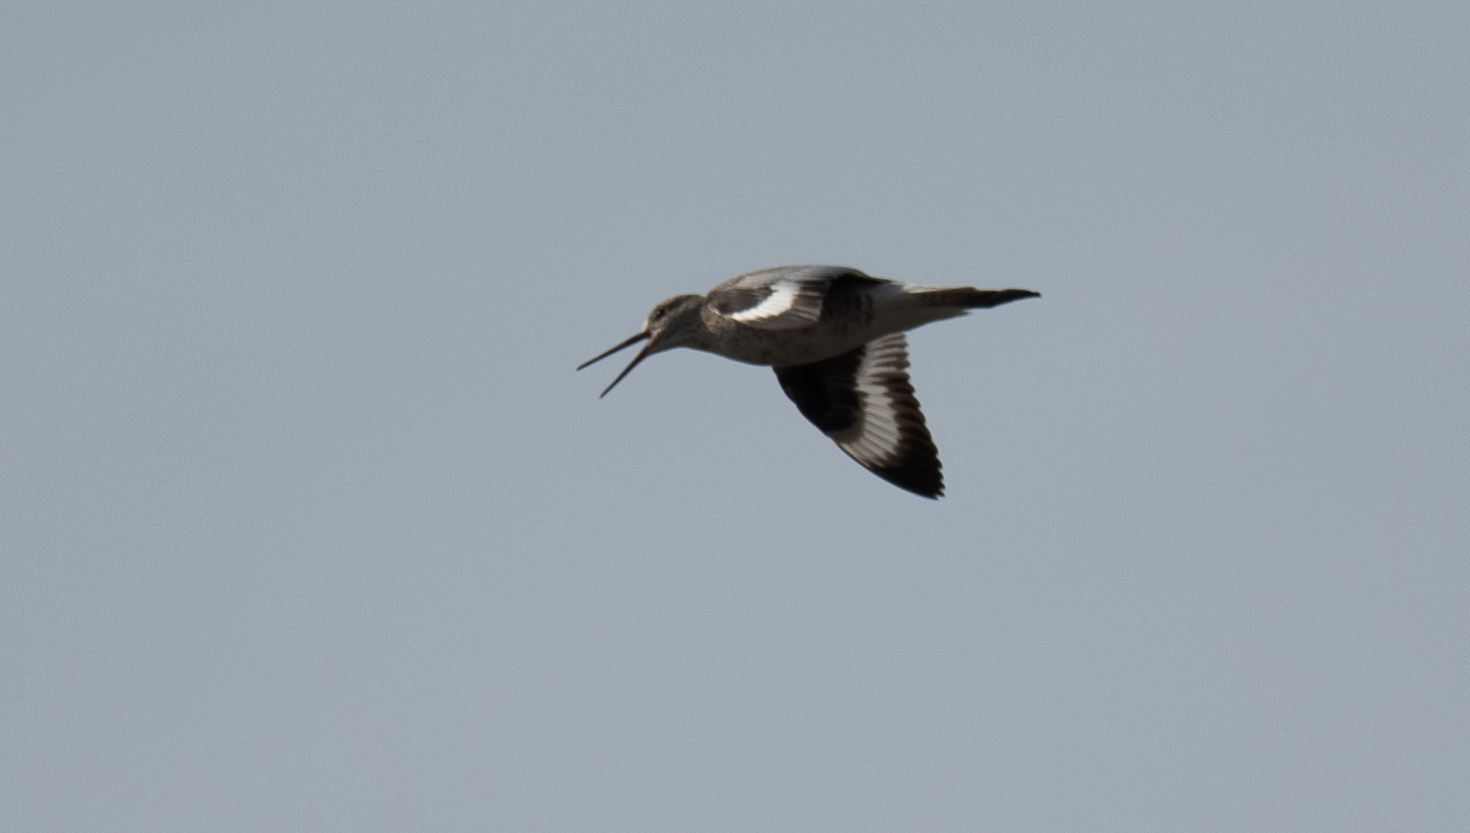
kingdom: Animalia
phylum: Chordata
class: Aves
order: Charadriiformes
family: Scolopacidae
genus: Tringa
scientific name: Tringa semipalmata
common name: Willet
